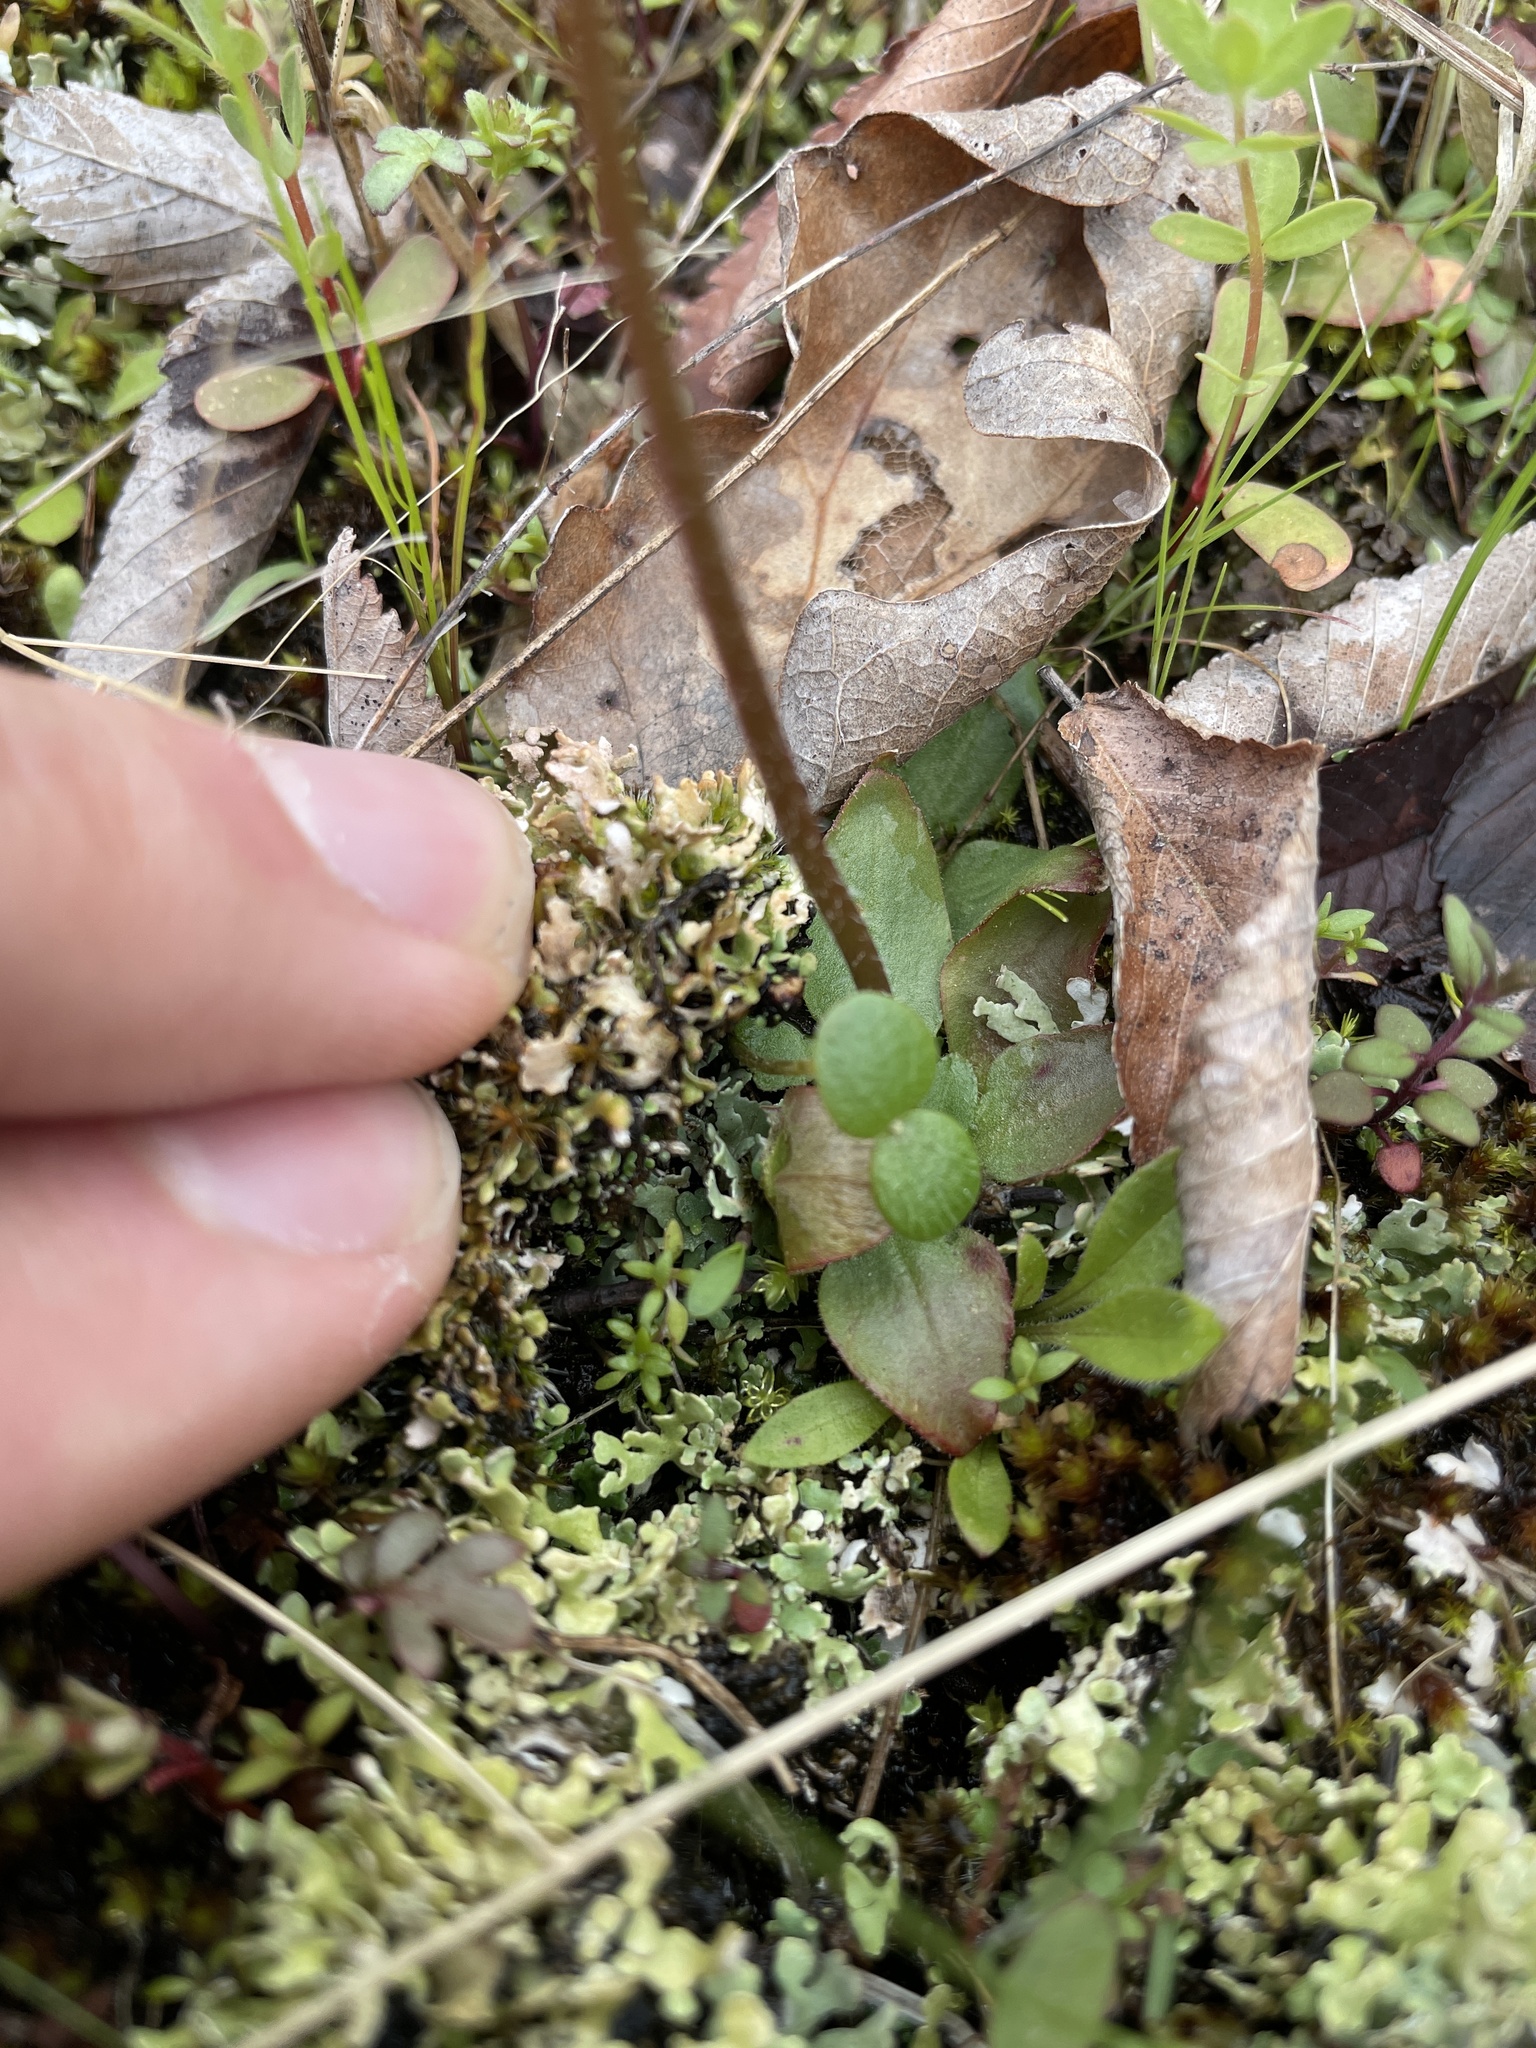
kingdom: Plantae
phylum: Tracheophyta
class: Magnoliopsida
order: Saxifragales
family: Saxifragaceae
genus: Micranthes
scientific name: Micranthes texana
